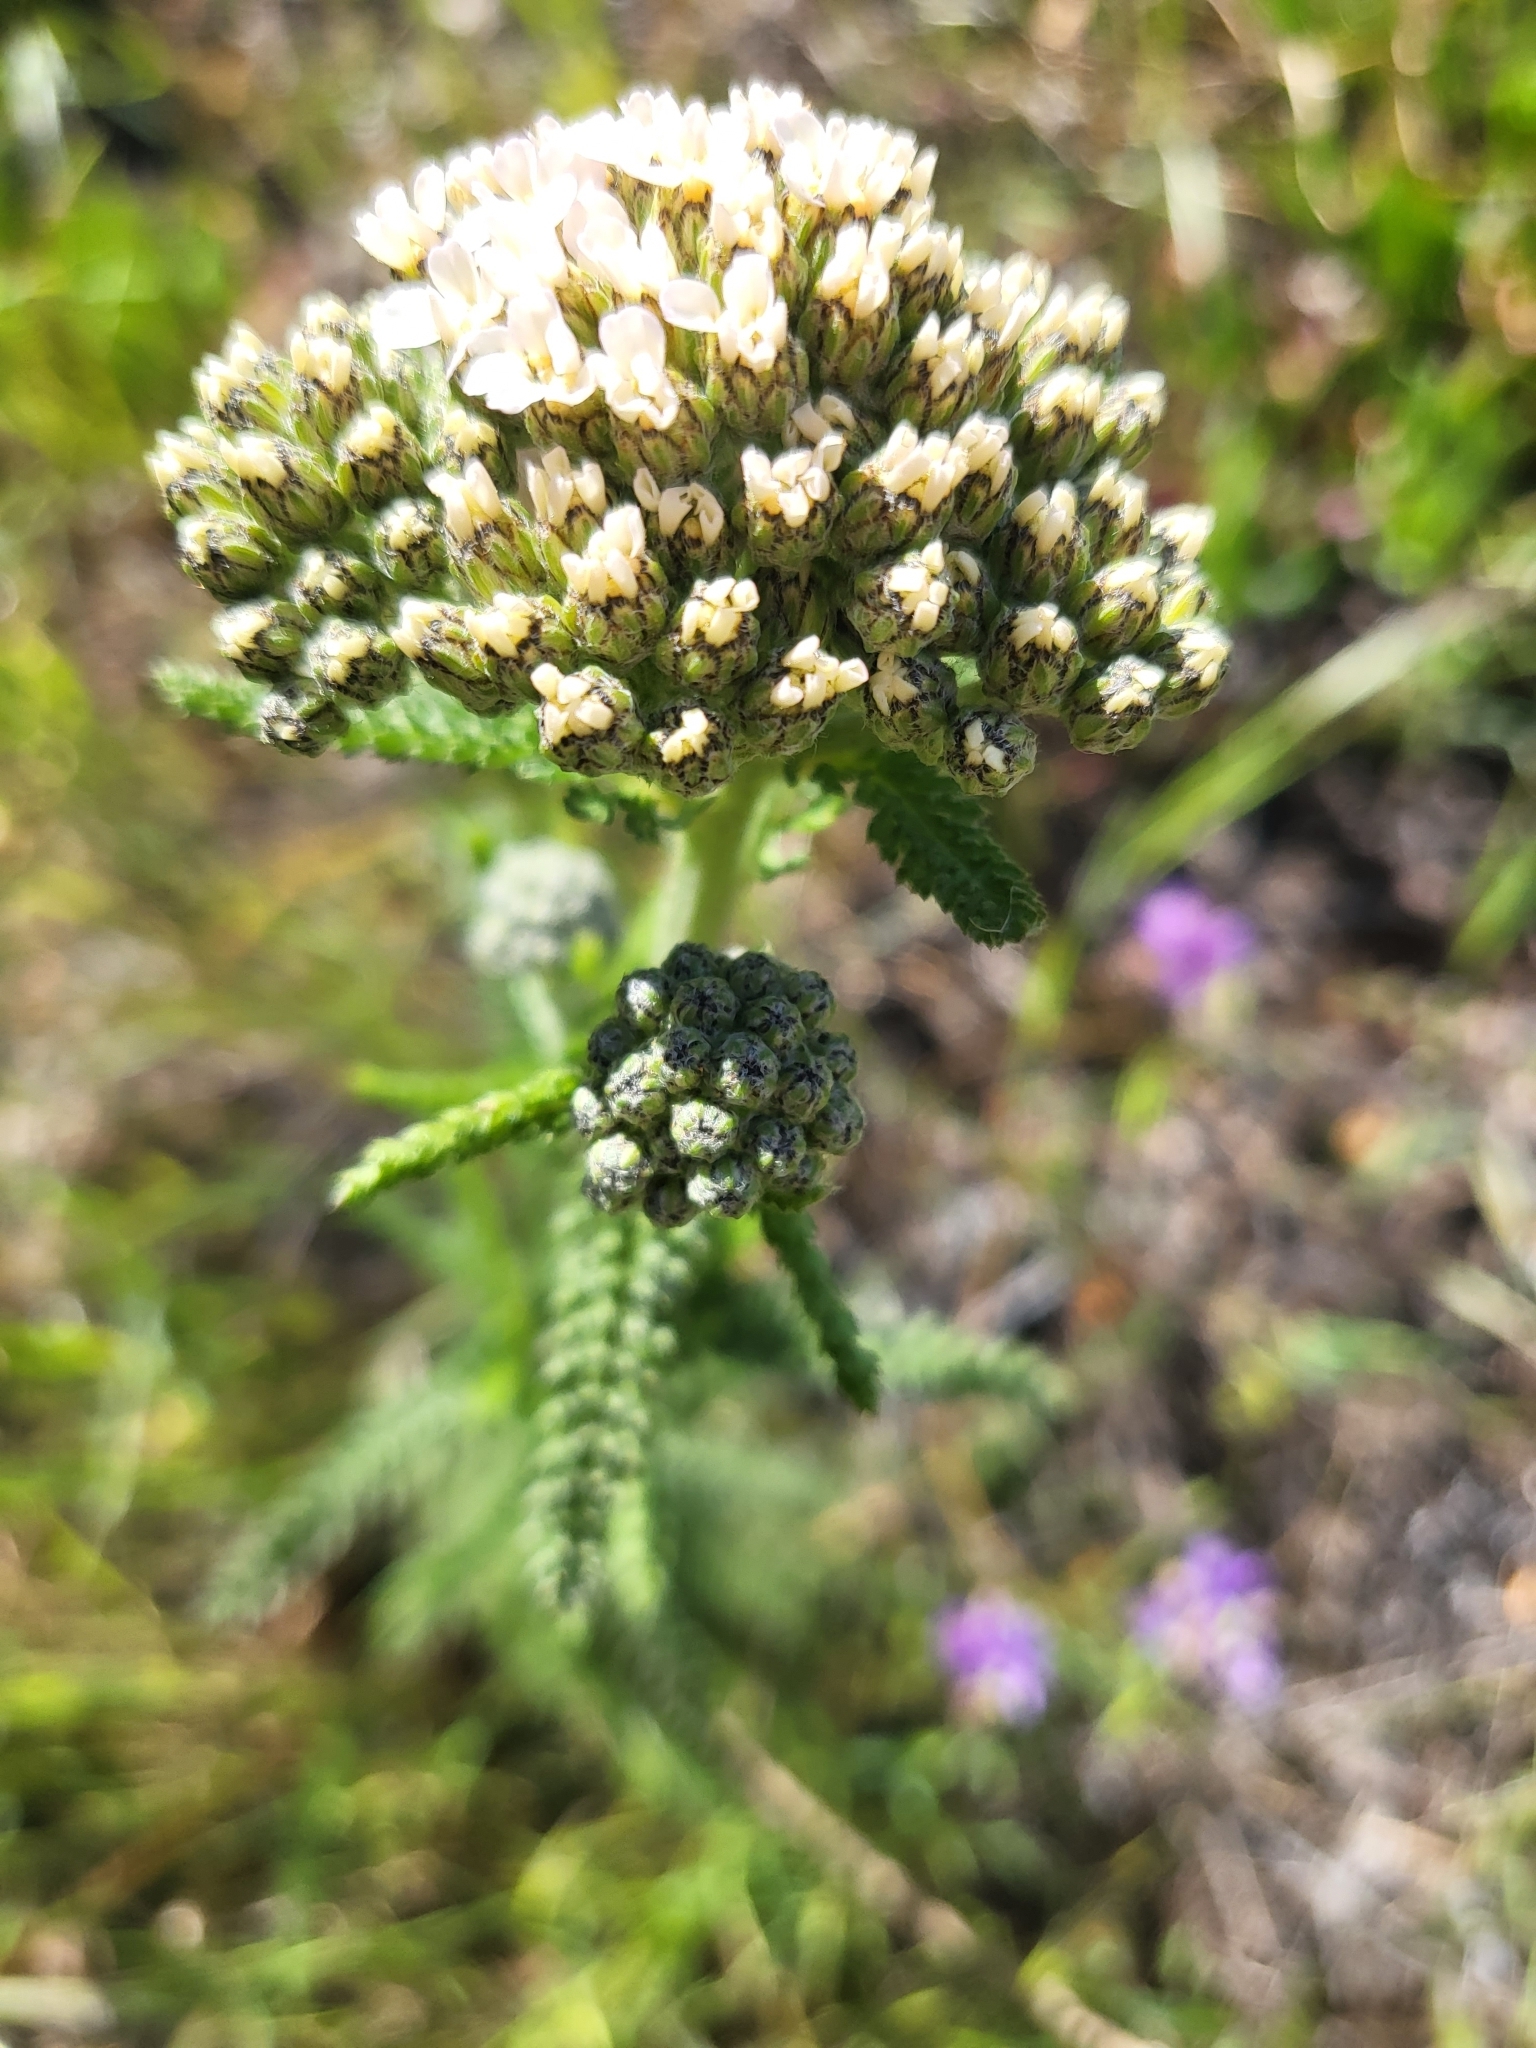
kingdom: Plantae
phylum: Tracheophyta
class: Magnoliopsida
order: Asterales
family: Asteraceae
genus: Achillea
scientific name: Achillea millefolium
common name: Yarrow
